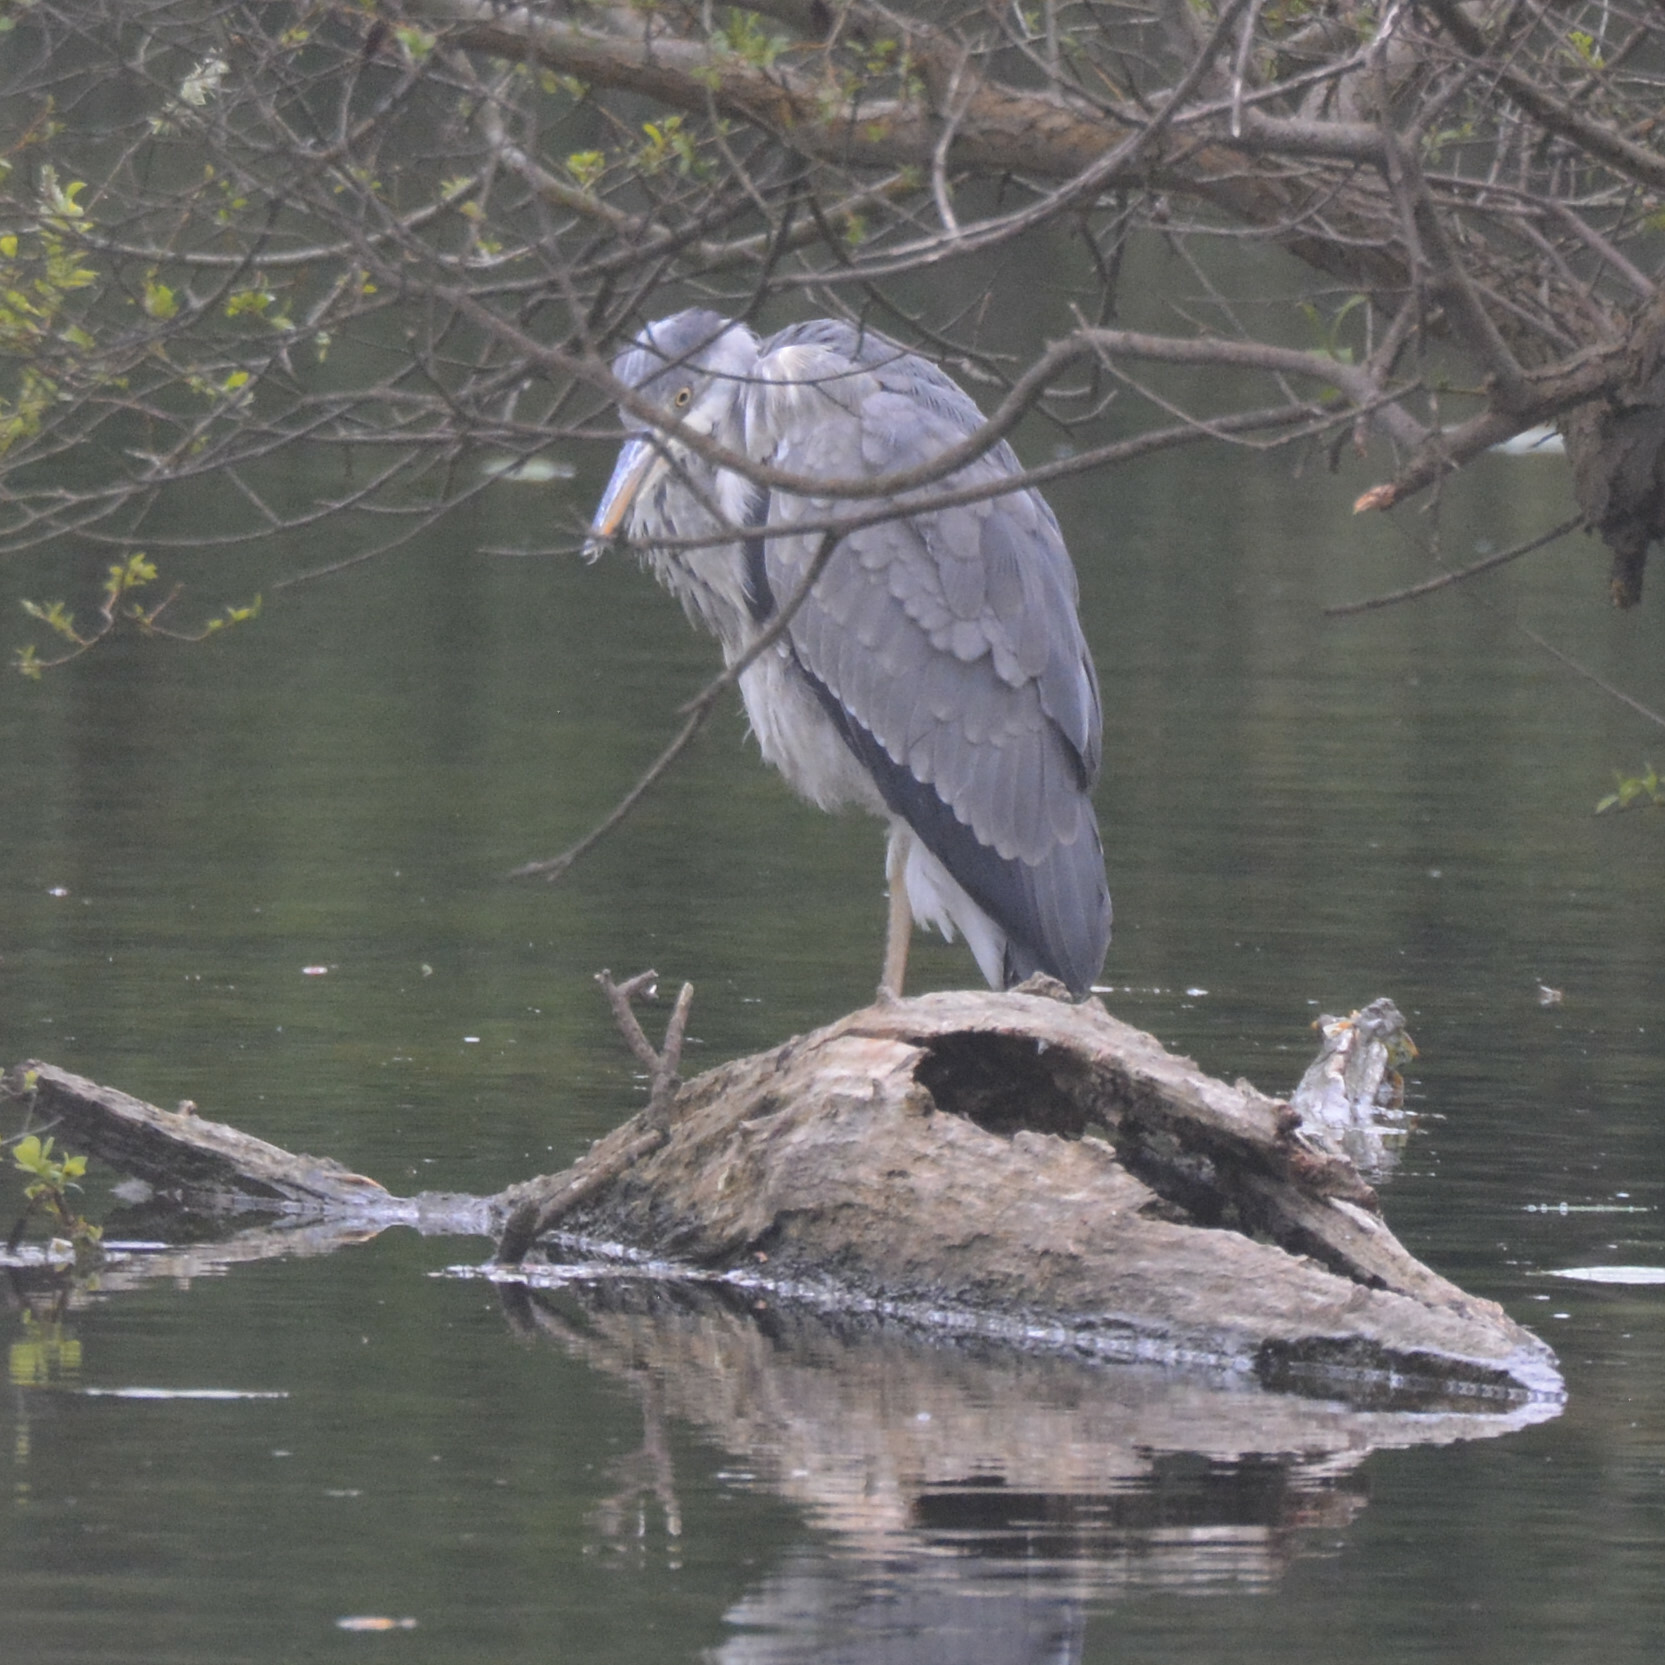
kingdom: Animalia
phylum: Chordata
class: Aves
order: Pelecaniformes
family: Ardeidae
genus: Ardea
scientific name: Ardea cinerea
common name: Grey heron
